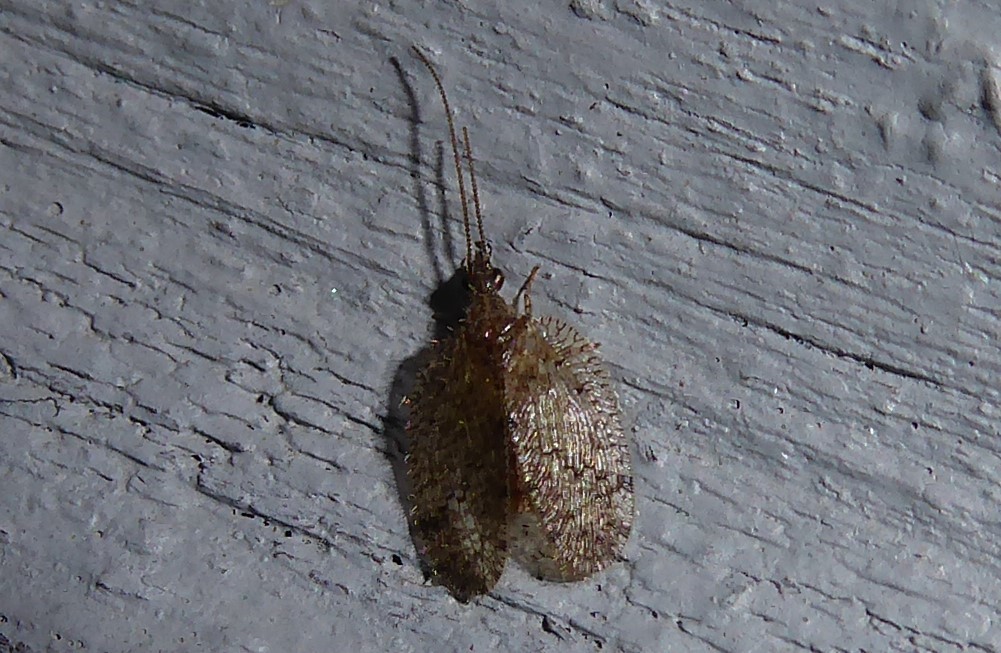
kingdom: Animalia
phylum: Arthropoda
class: Insecta
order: Neuroptera
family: Hemerobiidae
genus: Psectra
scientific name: Psectra nakaharai
